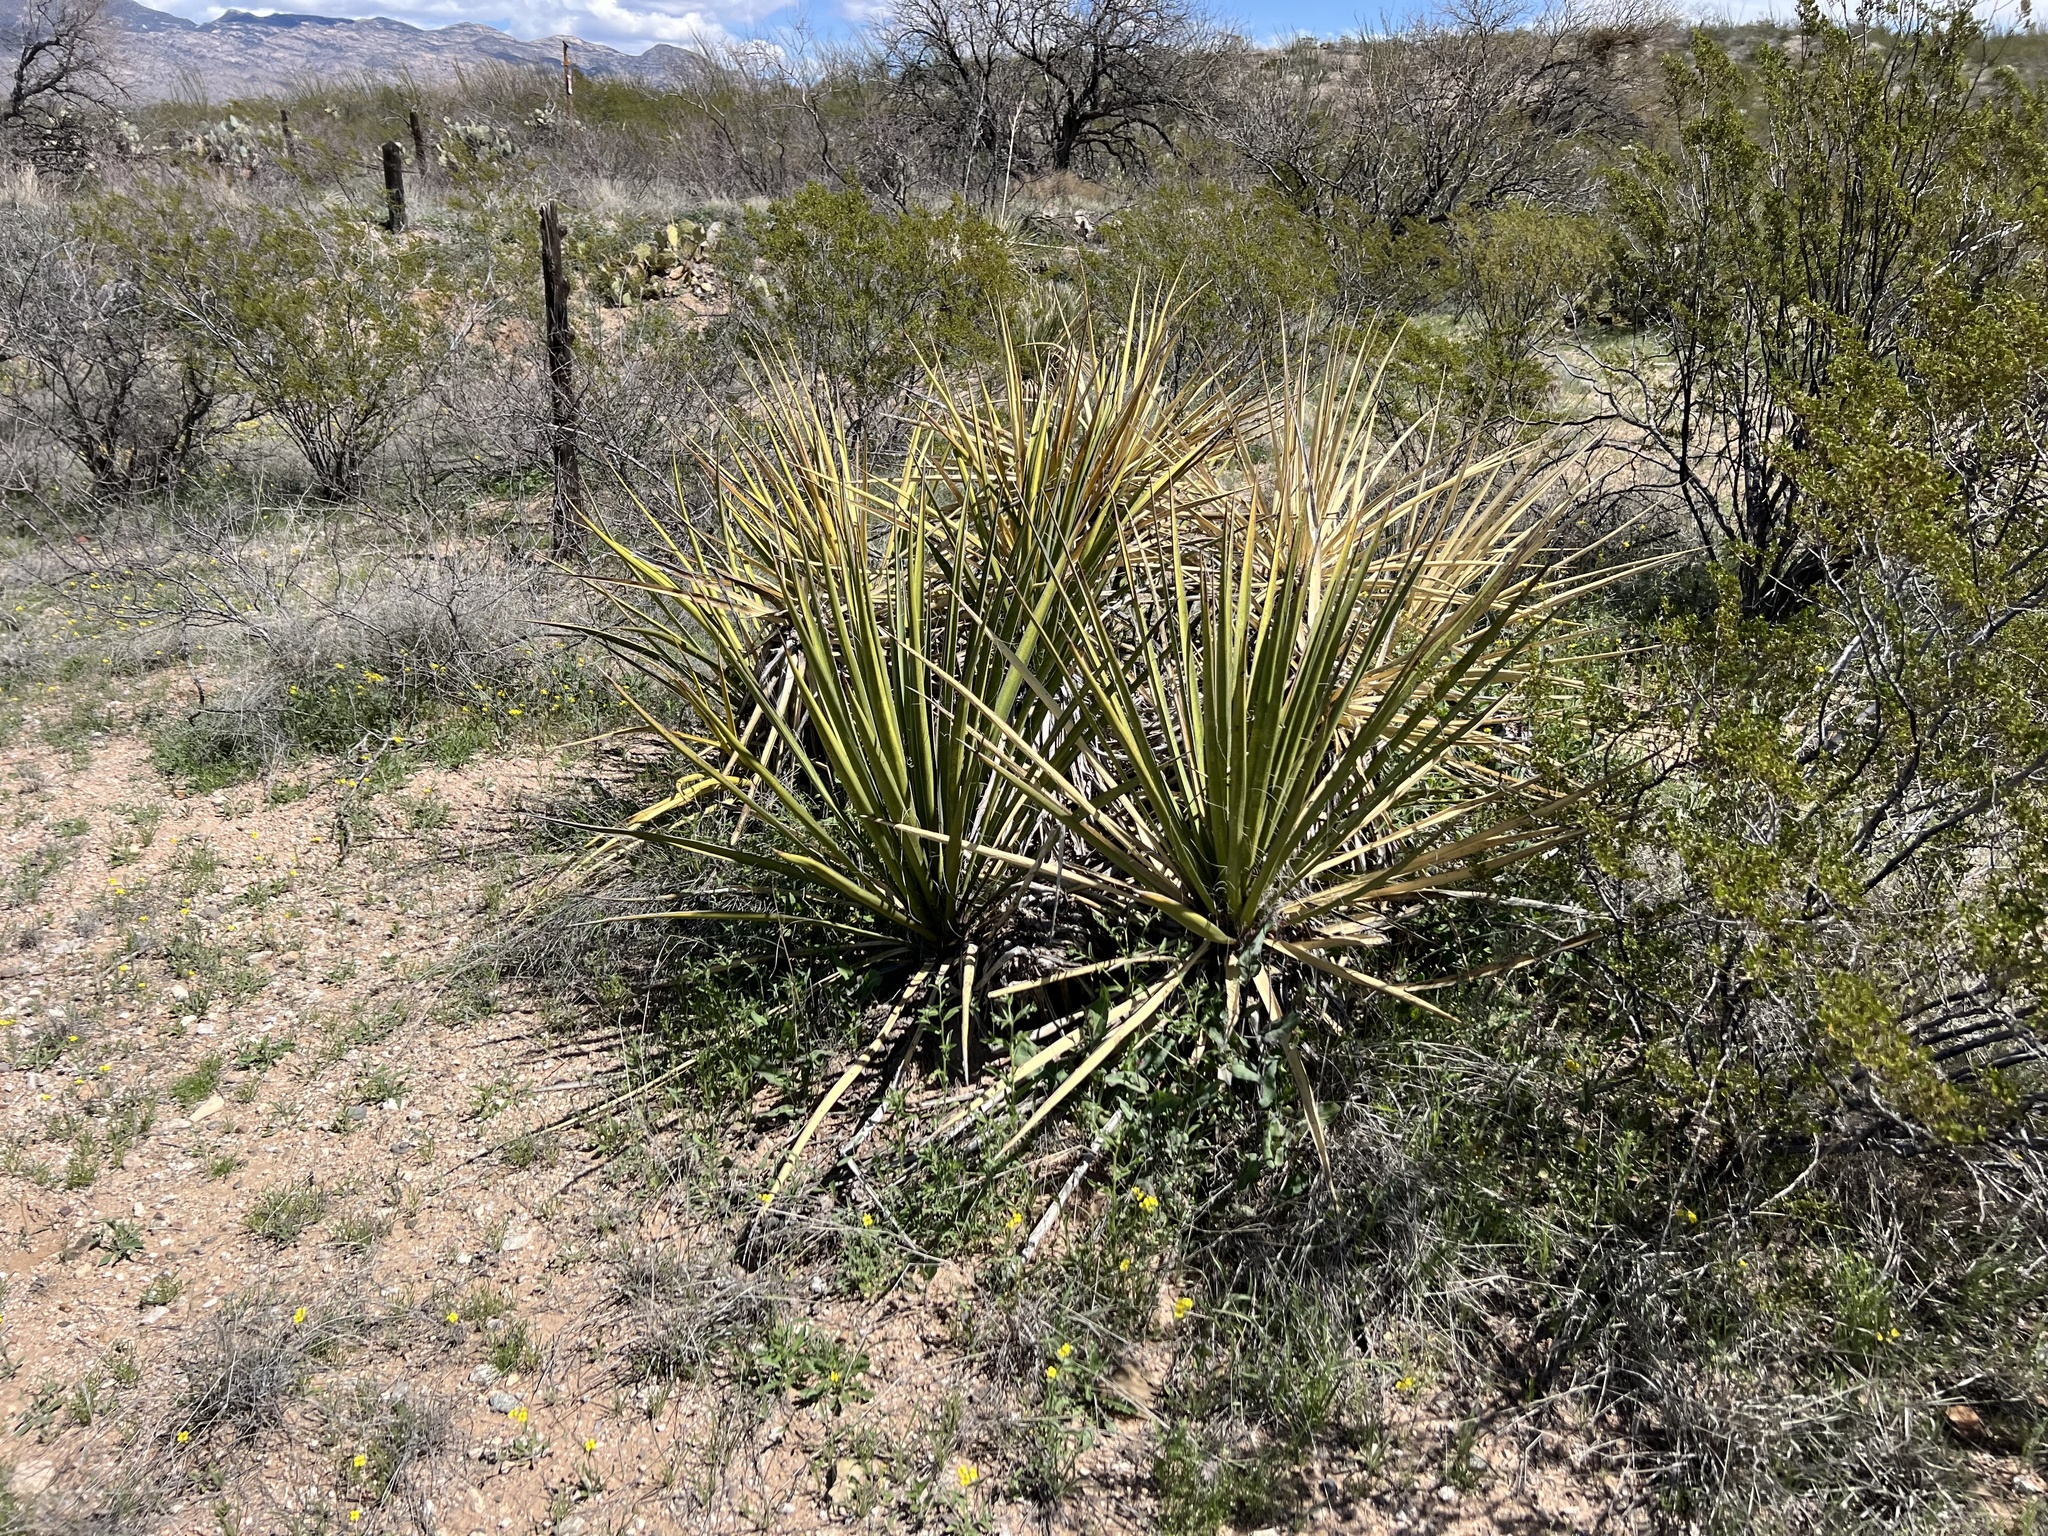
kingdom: Plantae
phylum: Tracheophyta
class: Liliopsida
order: Asparagales
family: Asparagaceae
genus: Yucca
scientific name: Yucca baccata
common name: Banana yucca
